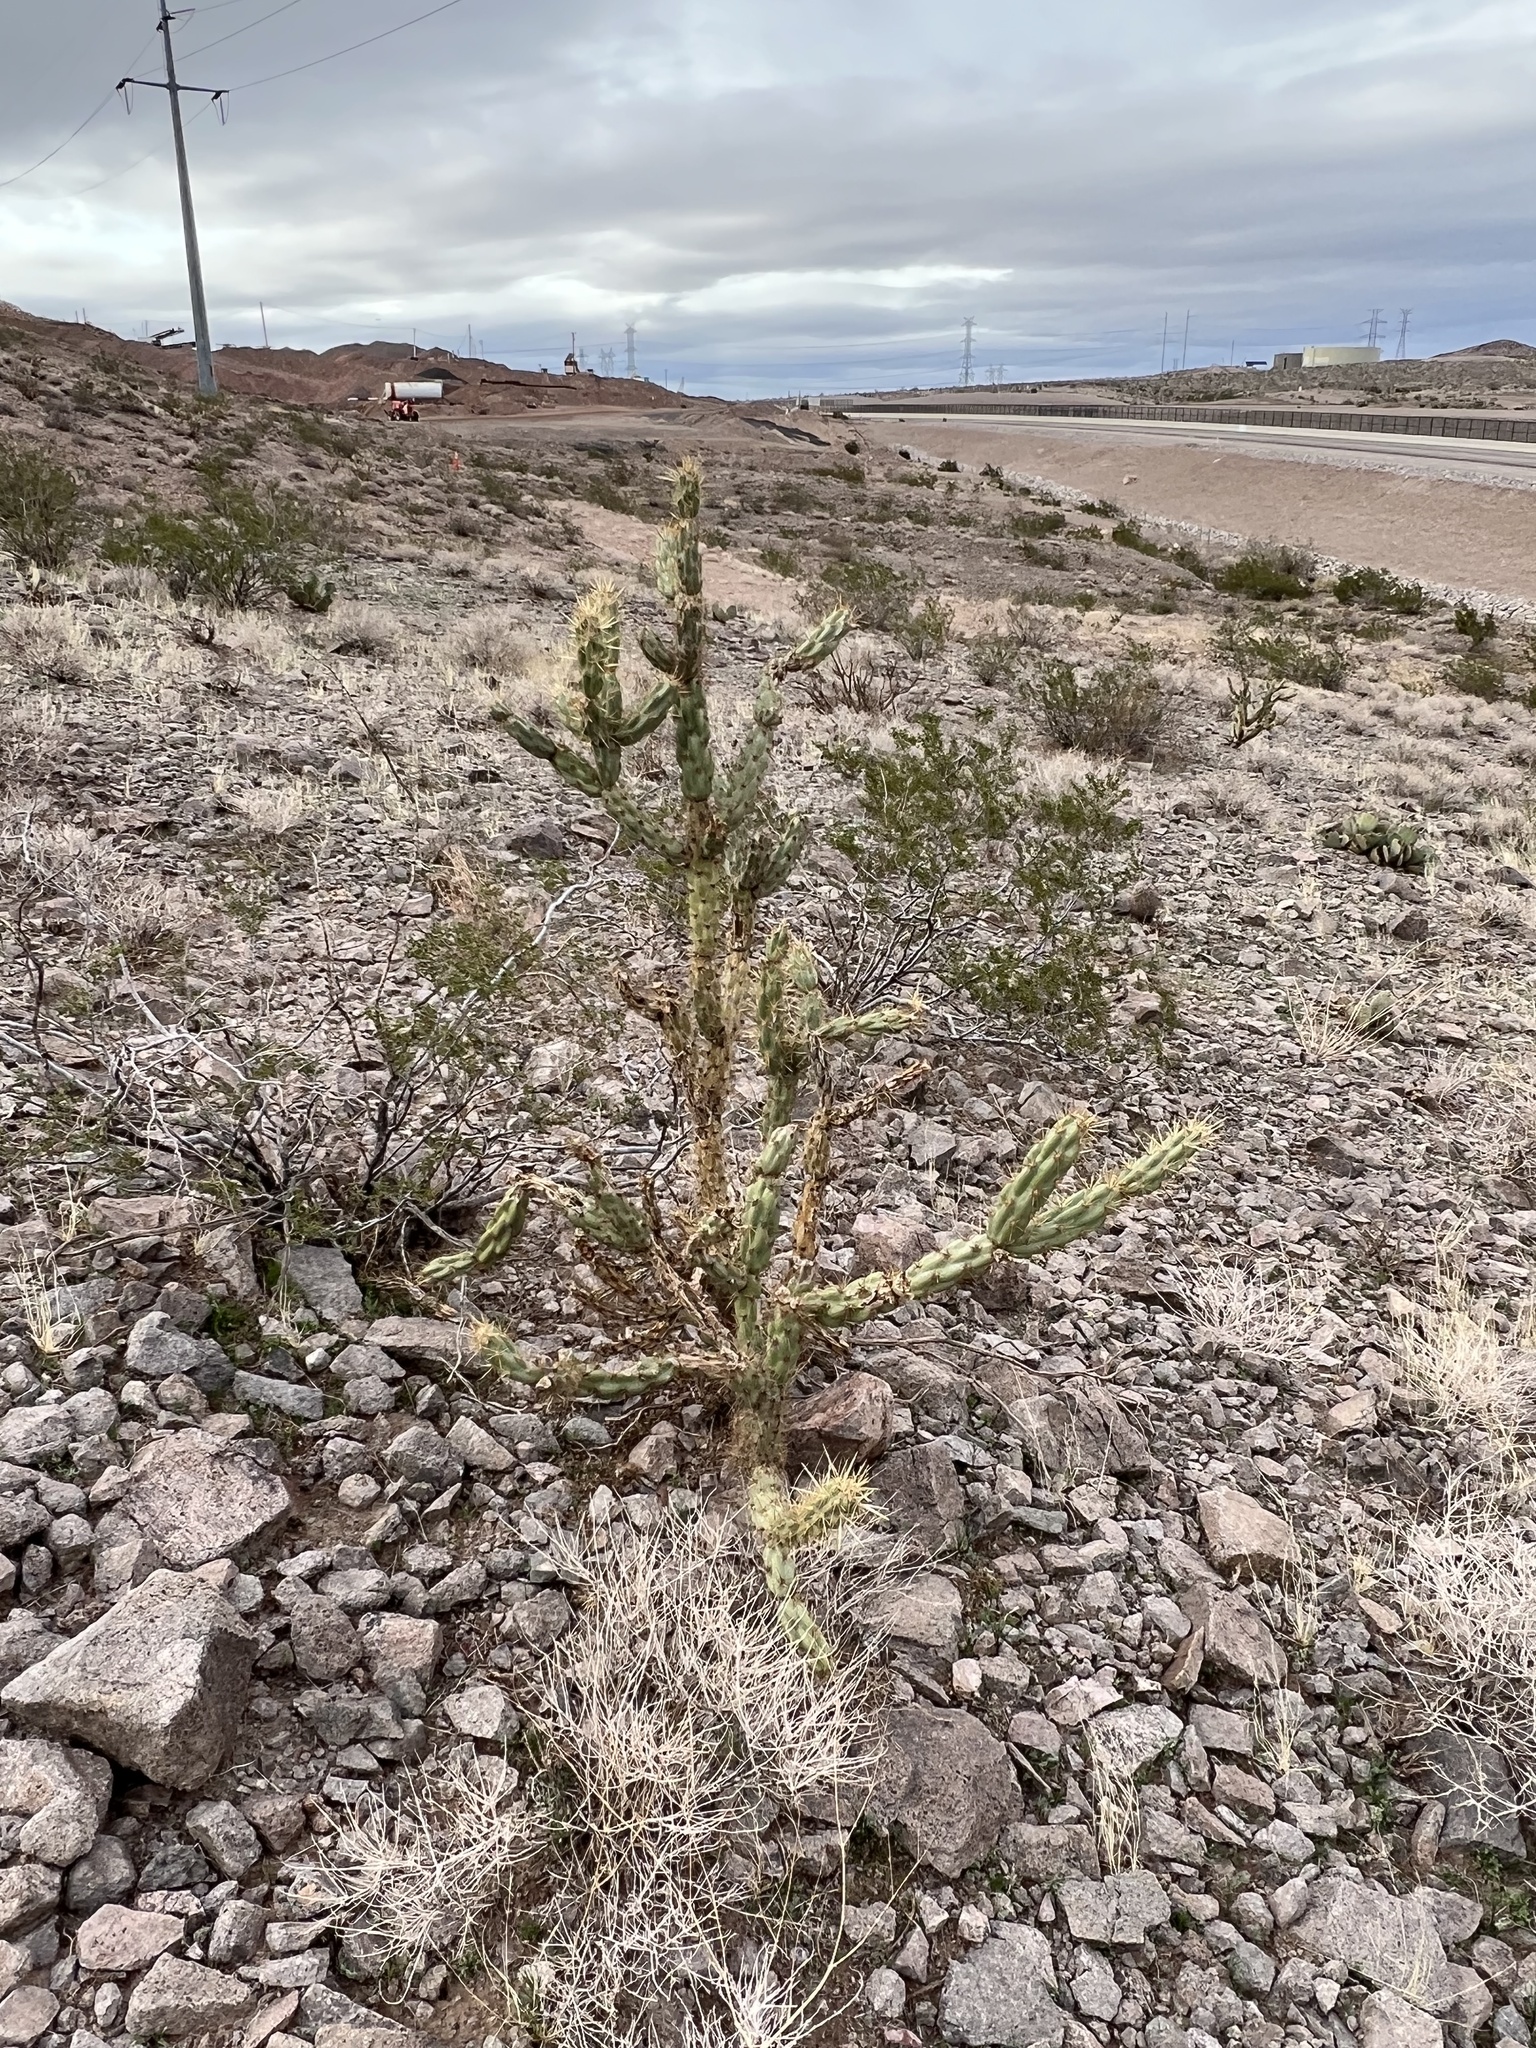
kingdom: Plantae
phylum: Tracheophyta
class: Magnoliopsida
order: Caryophyllales
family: Cactaceae
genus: Cylindropuntia
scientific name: Cylindropuntia acanthocarpa
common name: Buckhorn cholla
